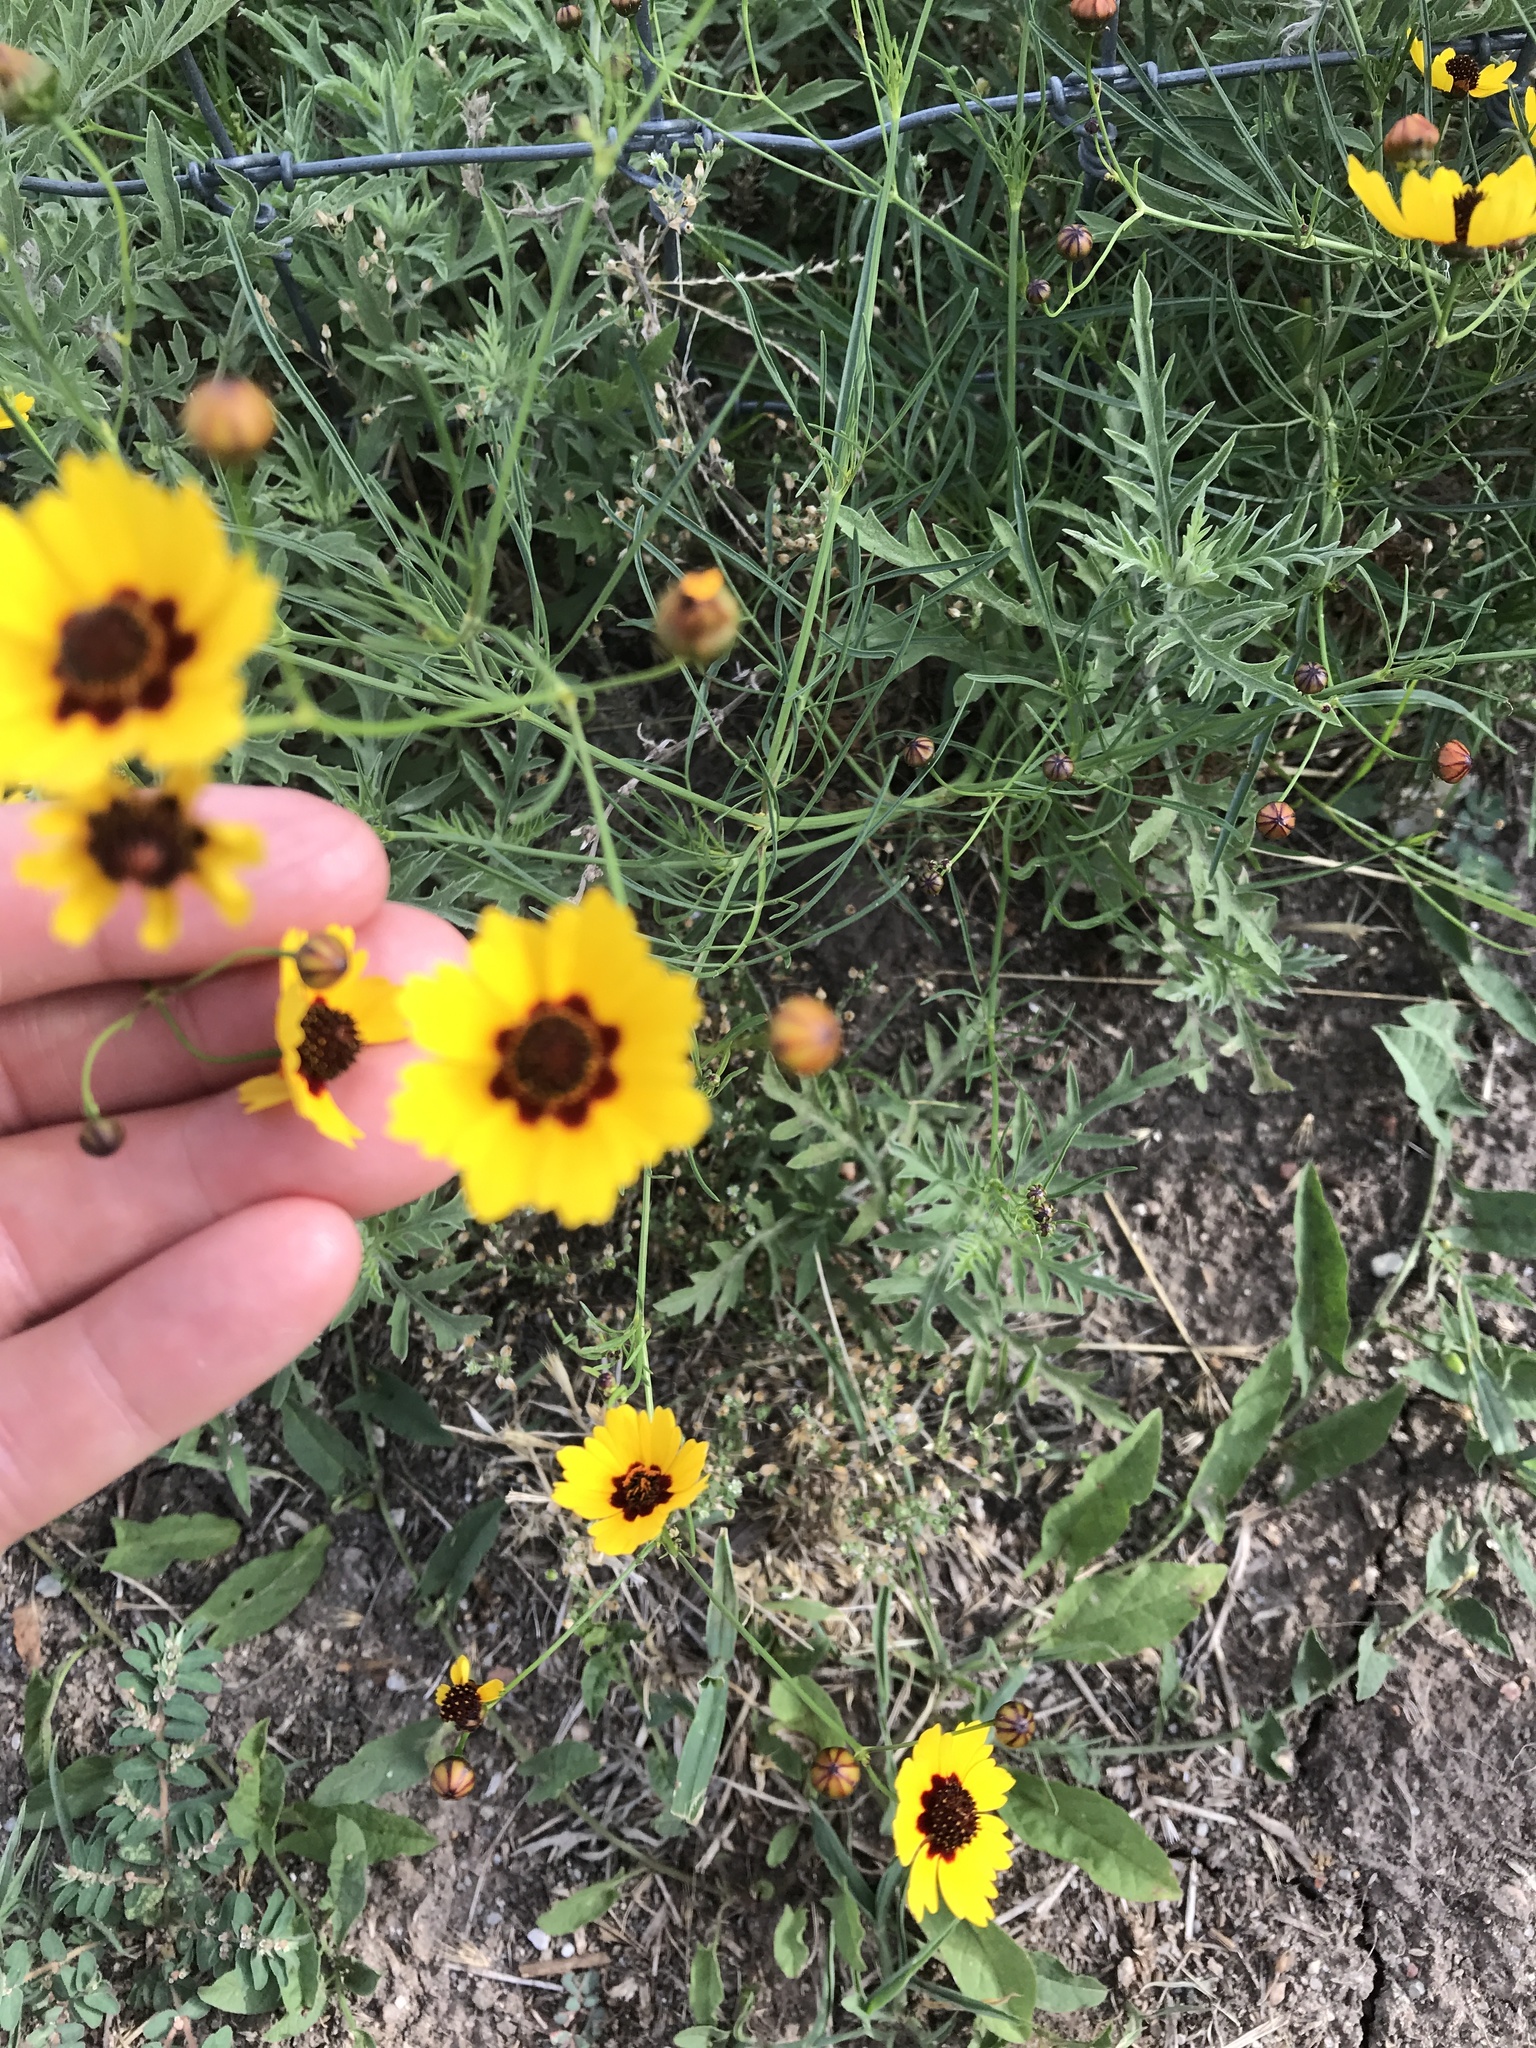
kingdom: Plantae
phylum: Tracheophyta
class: Magnoliopsida
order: Asterales
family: Asteraceae
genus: Coreopsis
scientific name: Coreopsis tinctoria
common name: Garden tickseed
